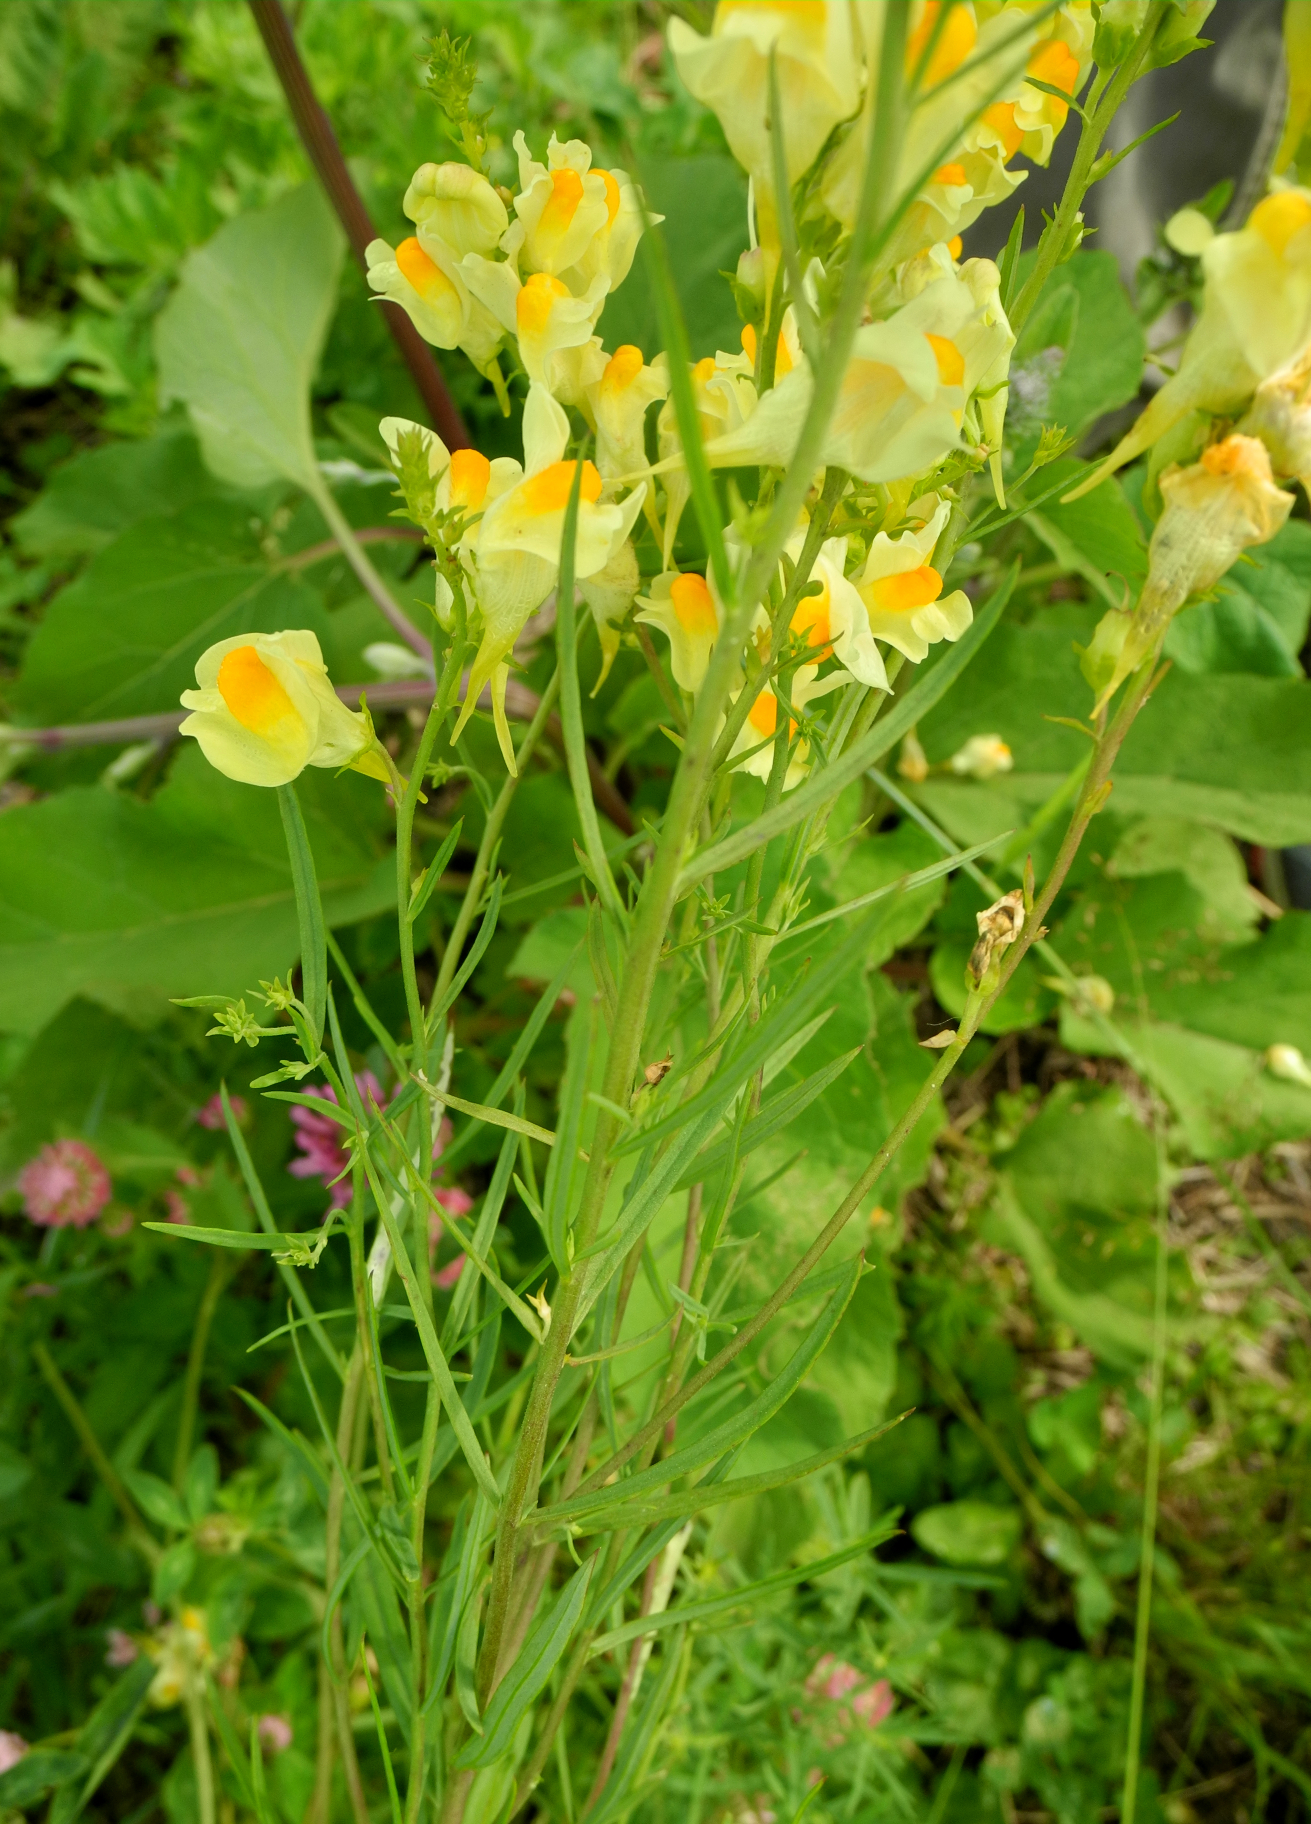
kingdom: Plantae
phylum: Tracheophyta
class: Magnoliopsida
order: Lamiales
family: Plantaginaceae
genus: Linaria
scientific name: Linaria vulgaris
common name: Butter and eggs
